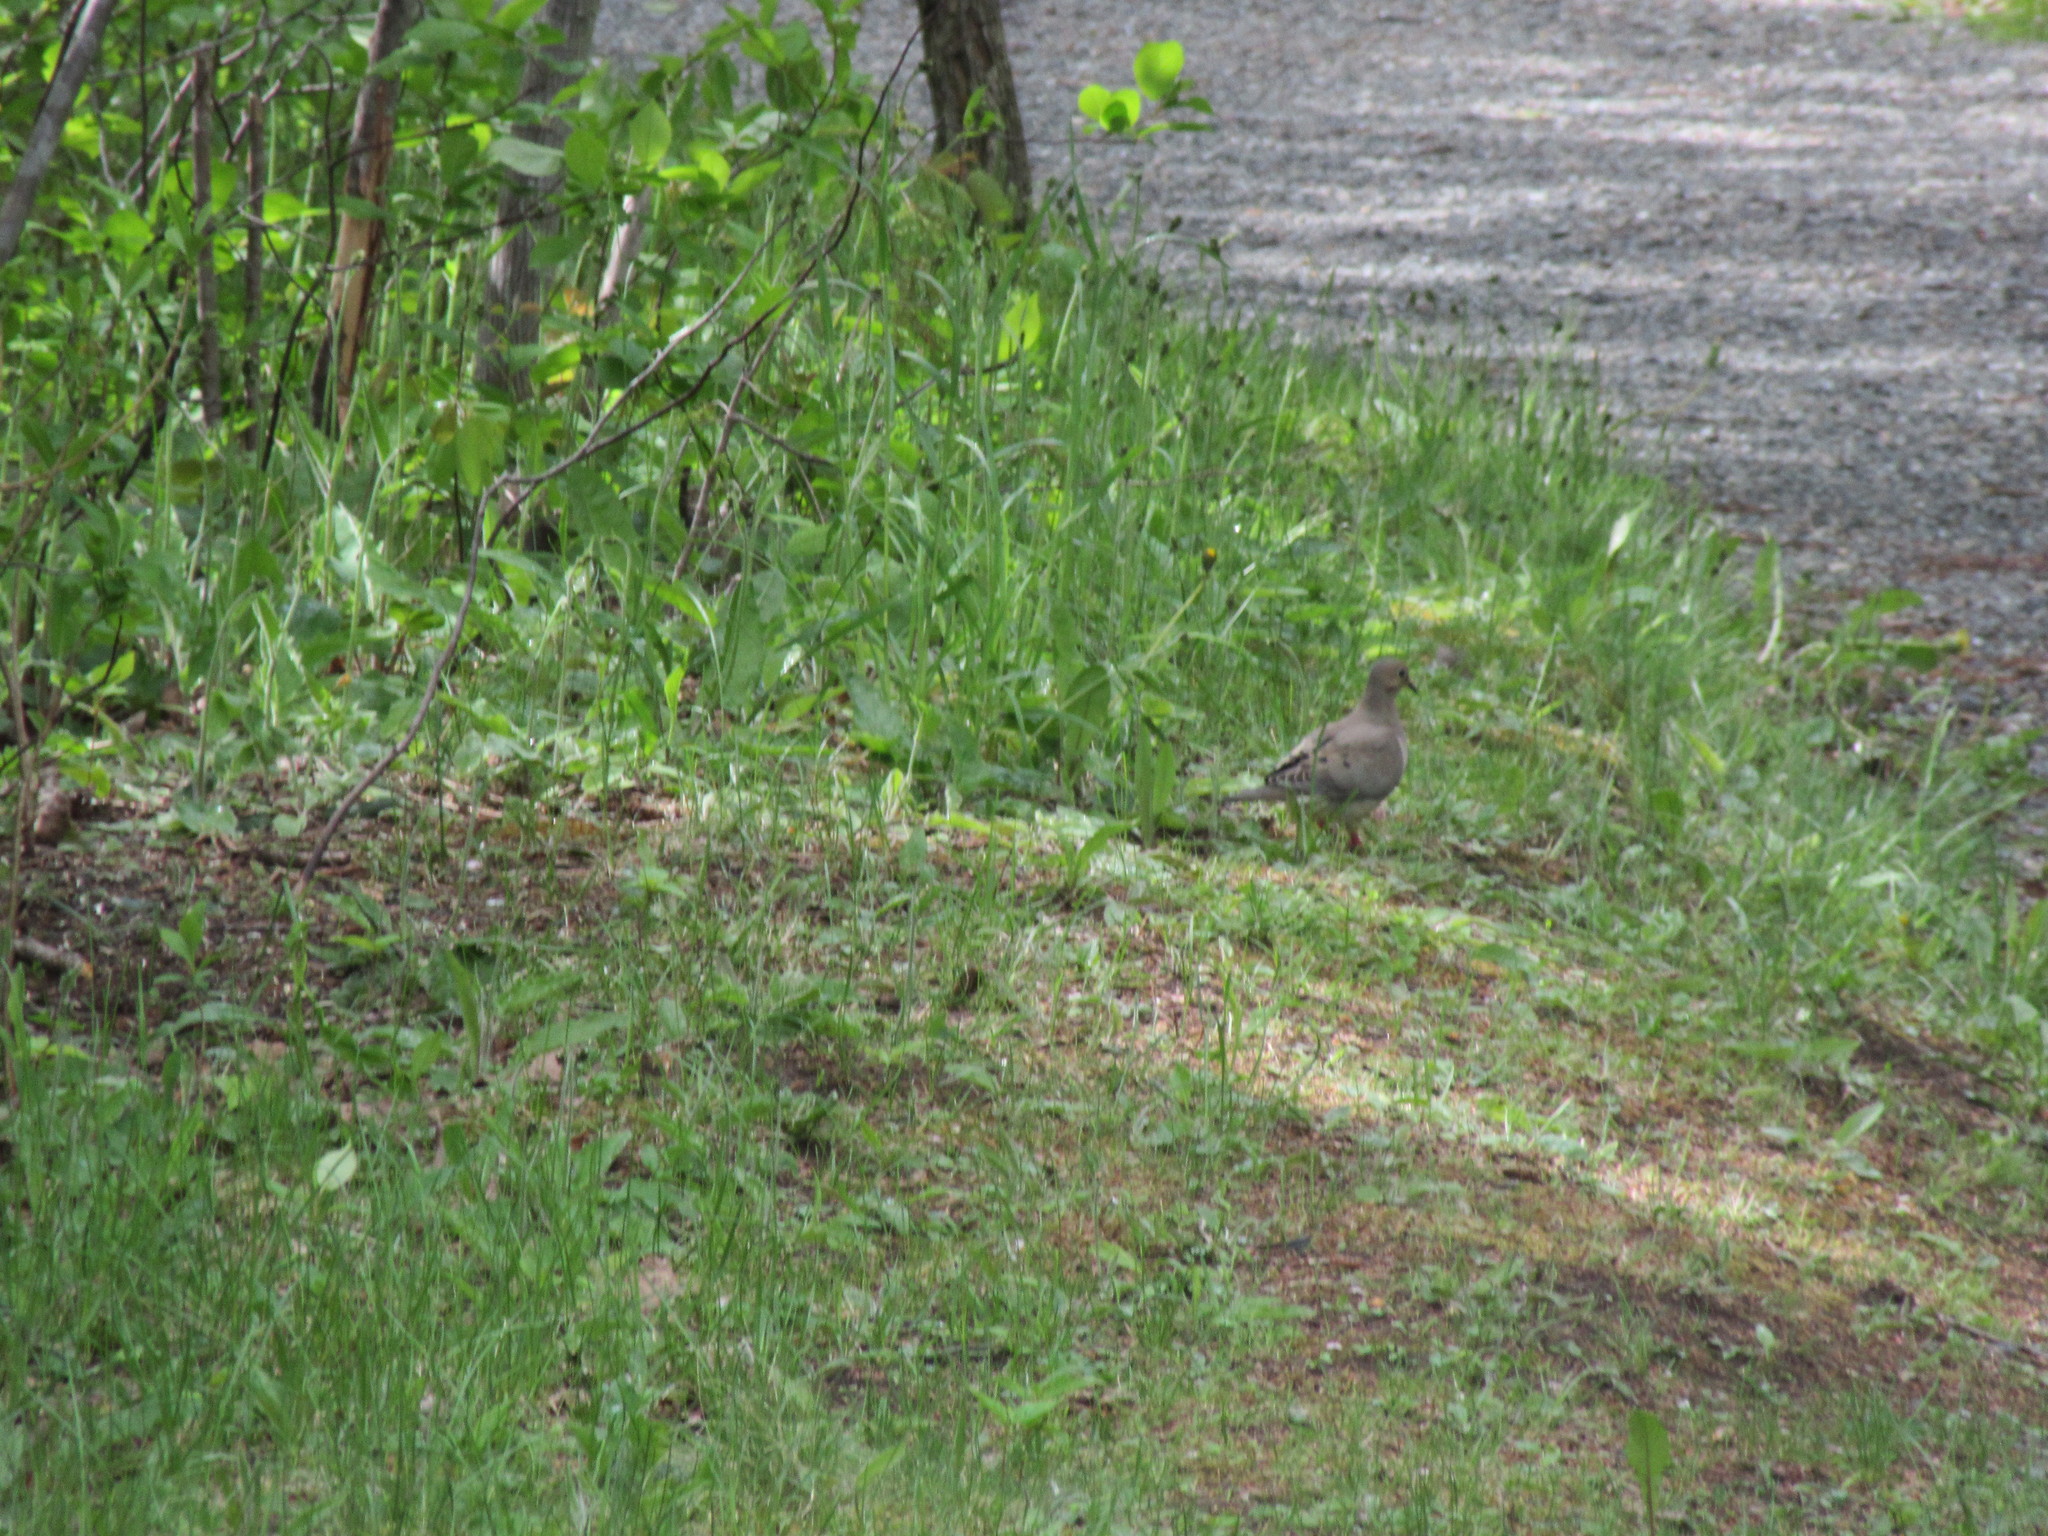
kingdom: Animalia
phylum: Chordata
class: Aves
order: Columbiformes
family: Columbidae
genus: Zenaida
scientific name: Zenaida macroura
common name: Mourning dove
